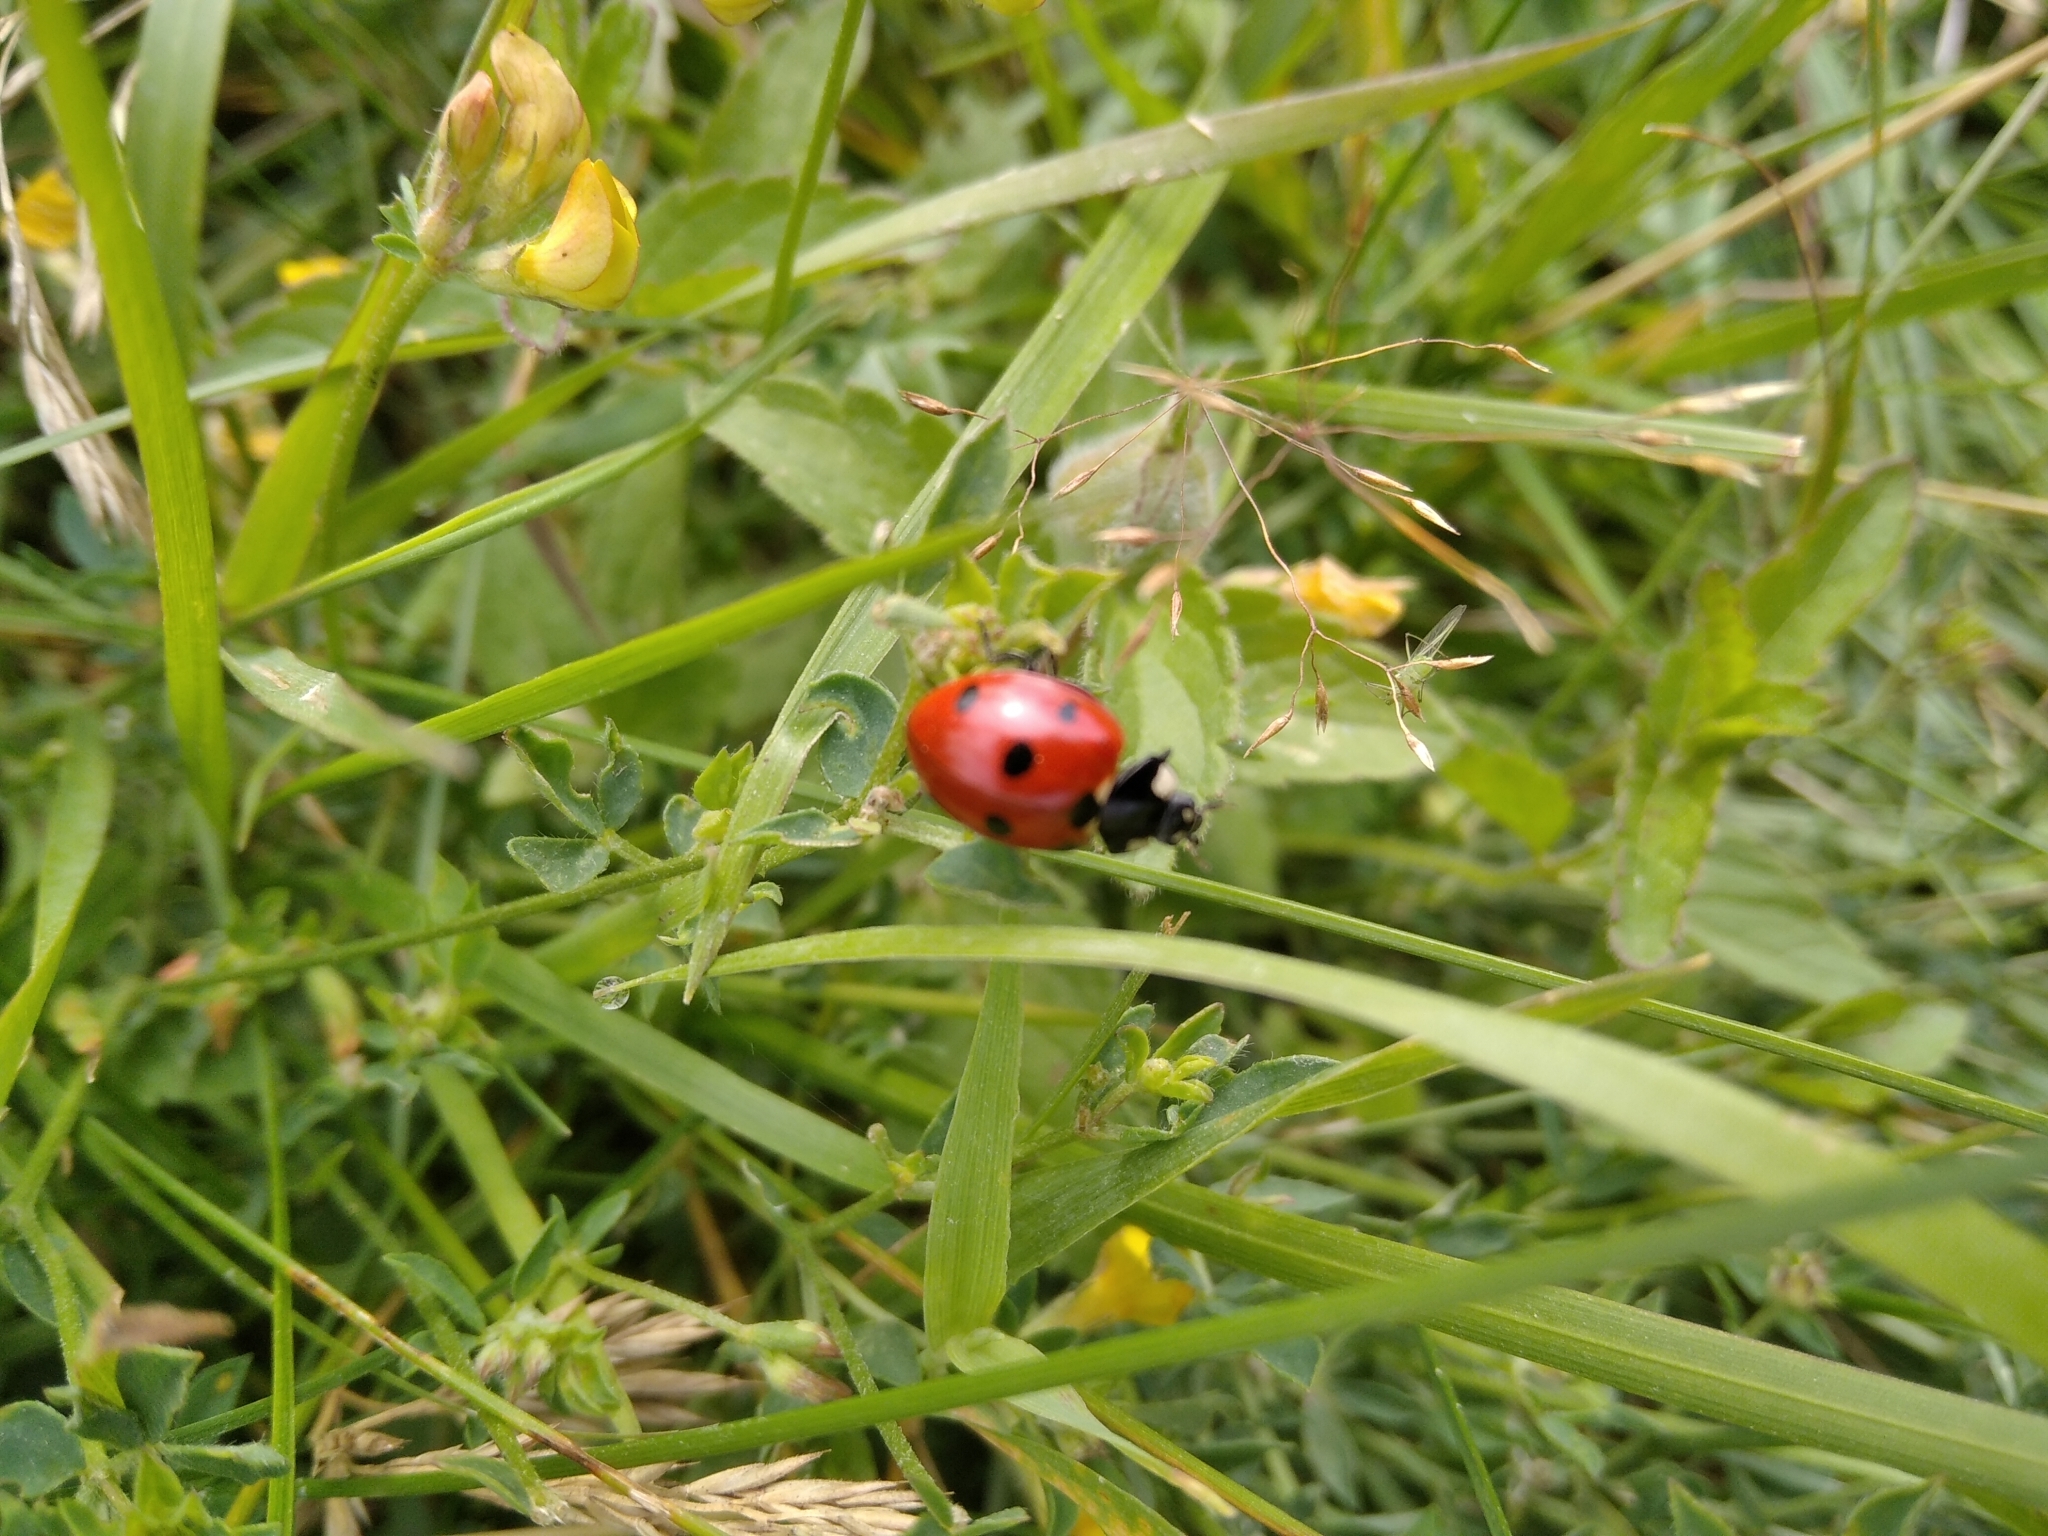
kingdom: Animalia
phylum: Arthropoda
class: Insecta
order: Coleoptera
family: Coccinellidae
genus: Coccinella
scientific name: Coccinella septempunctata
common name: Sevenspotted lady beetle
